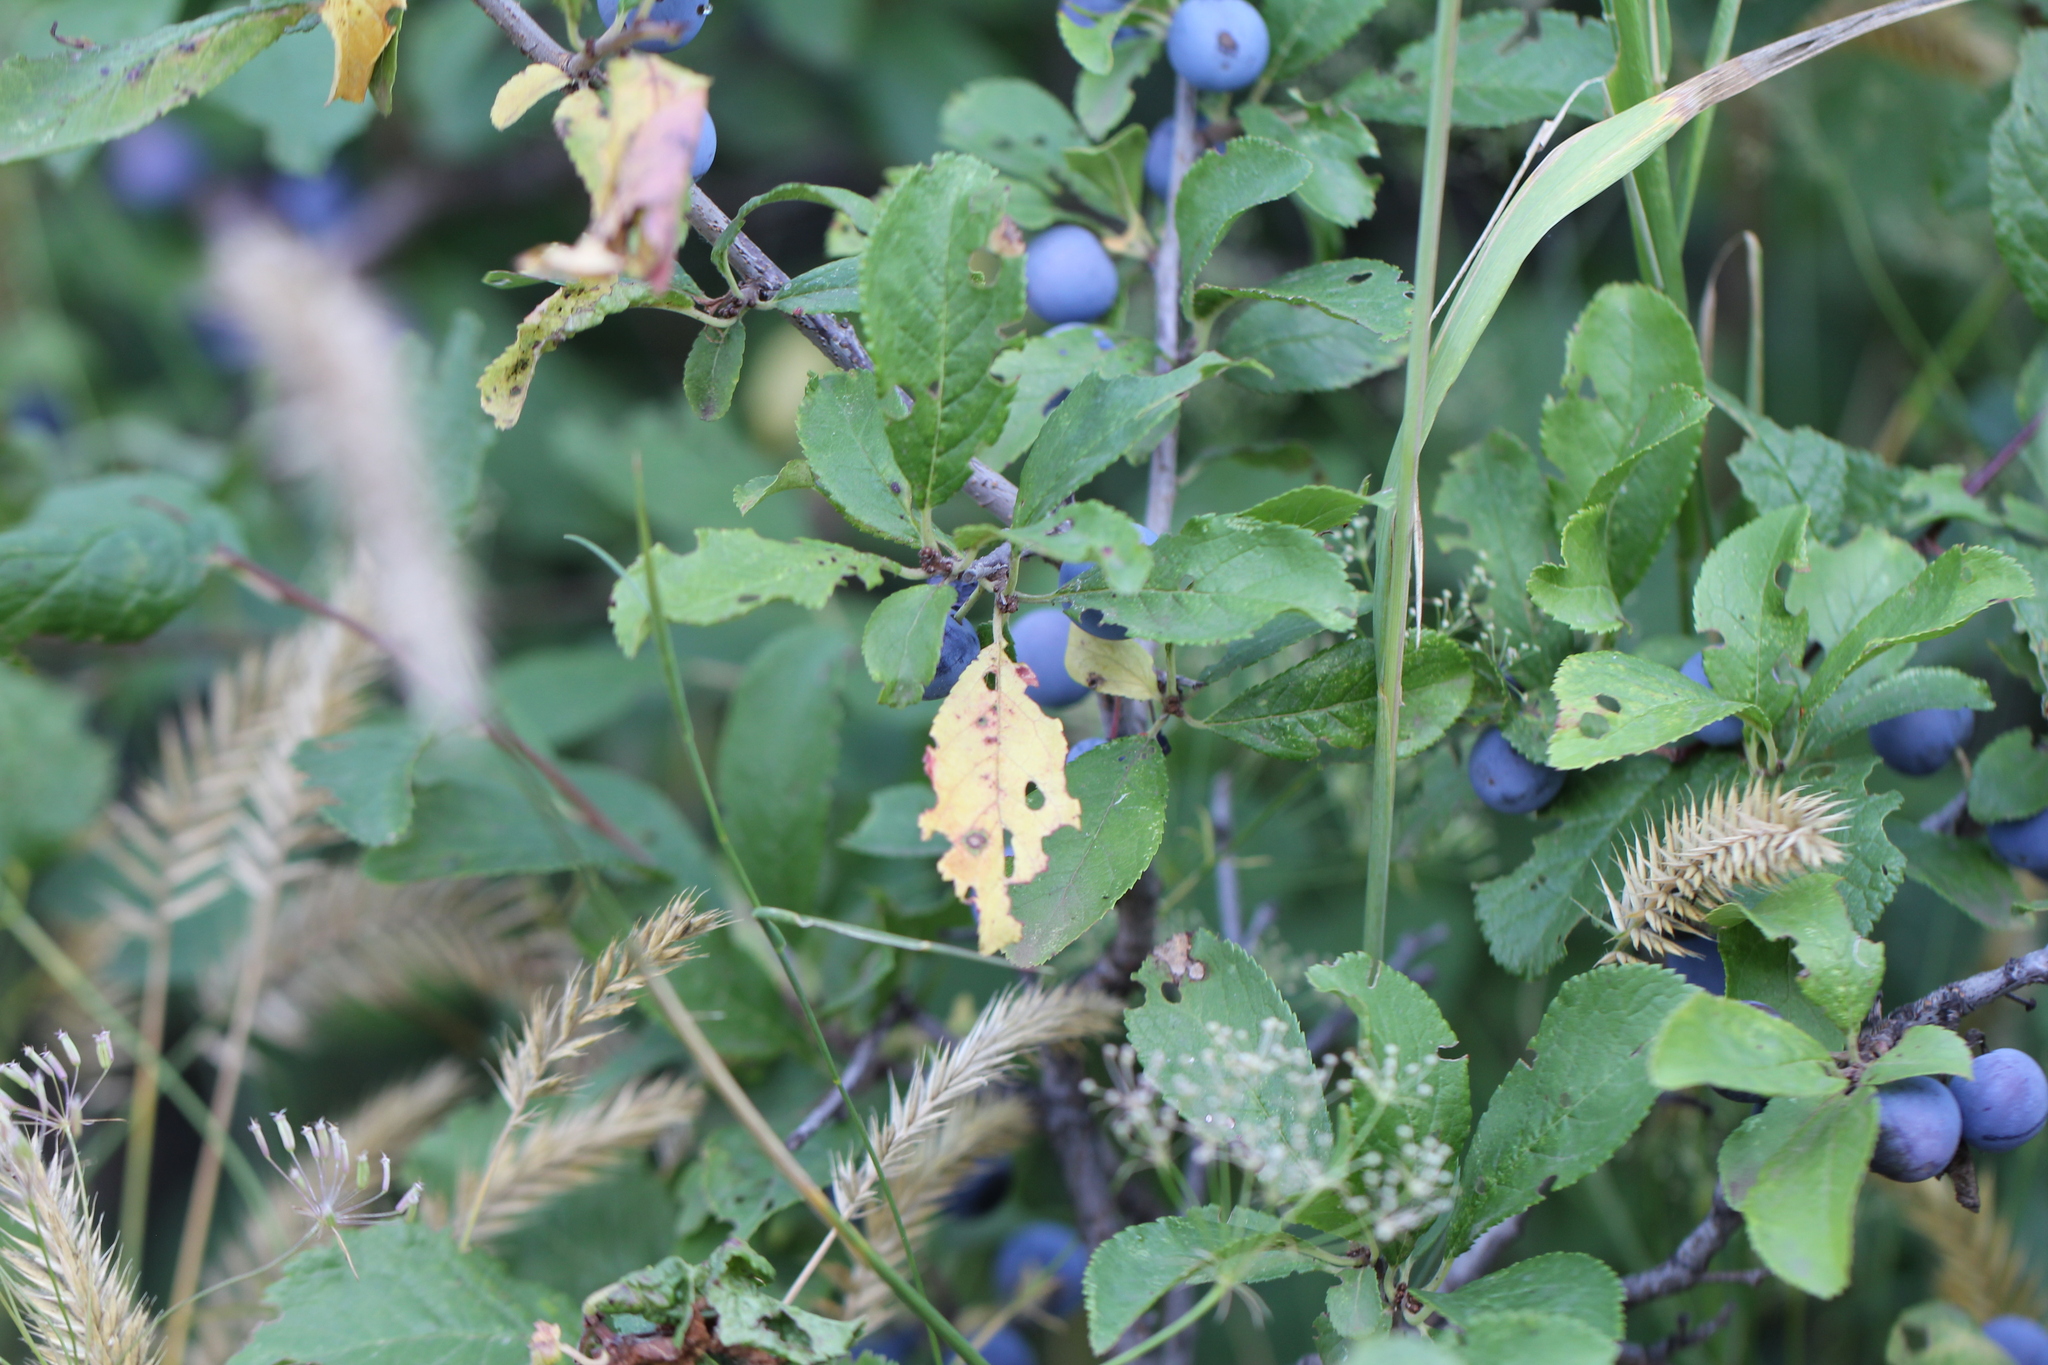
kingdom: Plantae
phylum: Tracheophyta
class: Magnoliopsida
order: Rosales
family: Rosaceae
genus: Prunus
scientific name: Prunus spinosa
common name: Blackthorn
